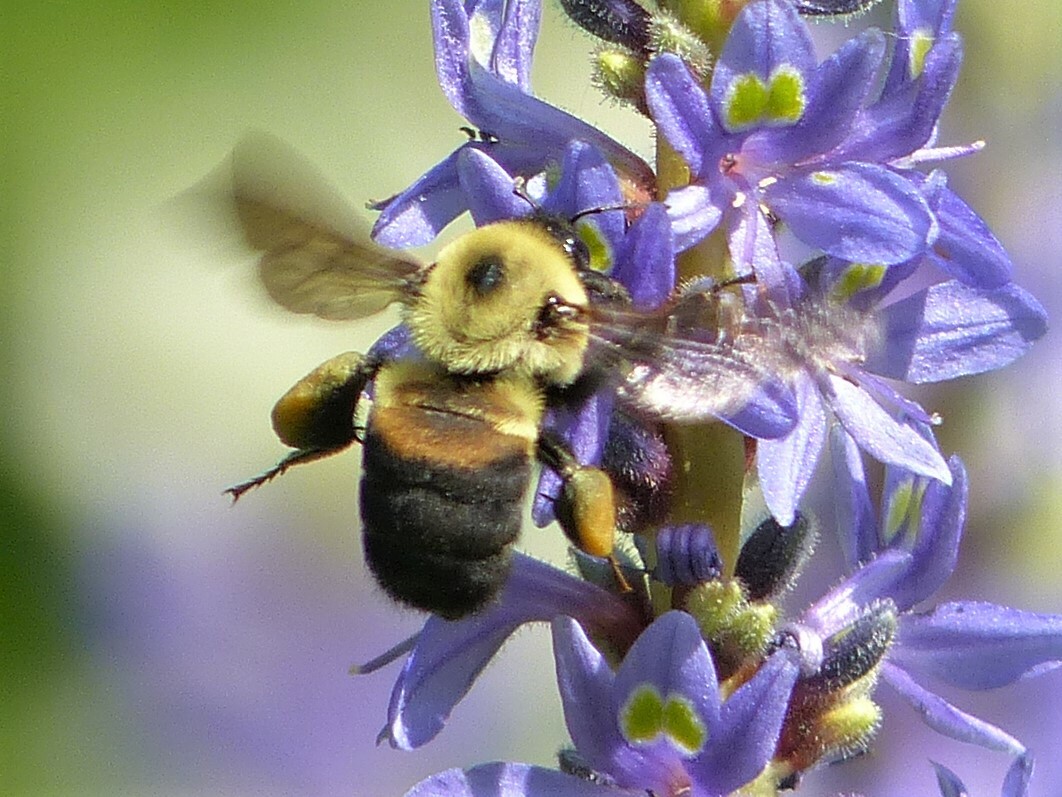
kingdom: Animalia
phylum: Arthropoda
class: Insecta
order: Hymenoptera
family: Apidae
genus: Bombus
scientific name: Bombus griseocollis
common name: Brown-belted bumble bee
